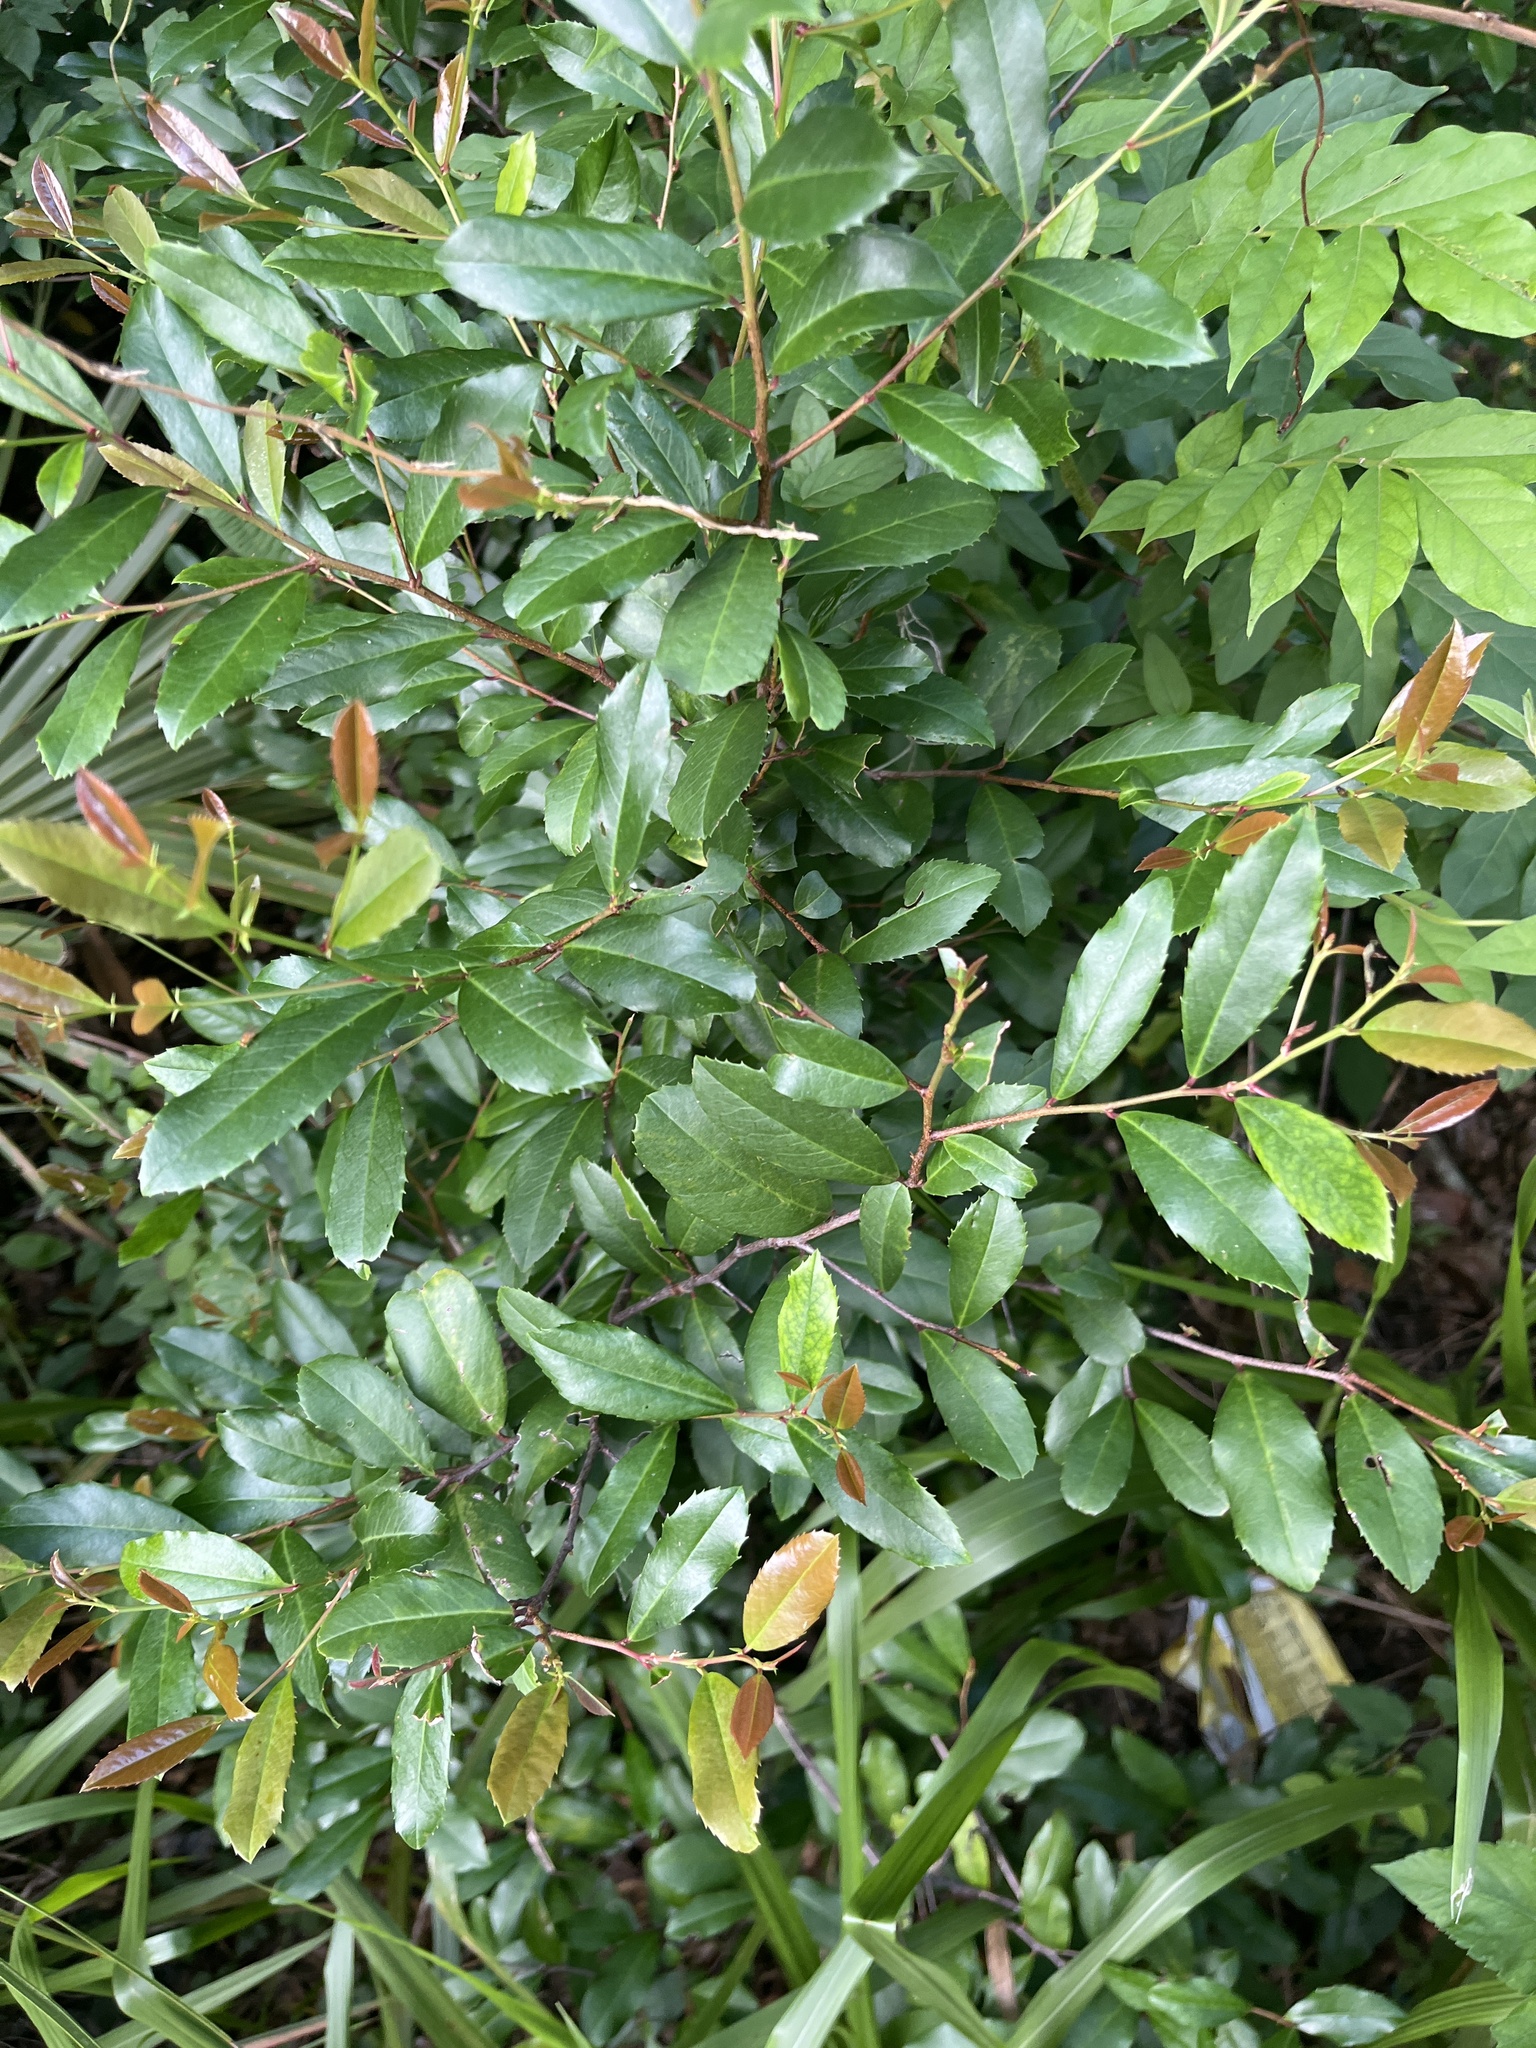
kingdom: Plantae
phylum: Tracheophyta
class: Magnoliopsida
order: Rosales
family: Rosaceae
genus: Prunus
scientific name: Prunus caroliniana
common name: Carolina laurel cherry
